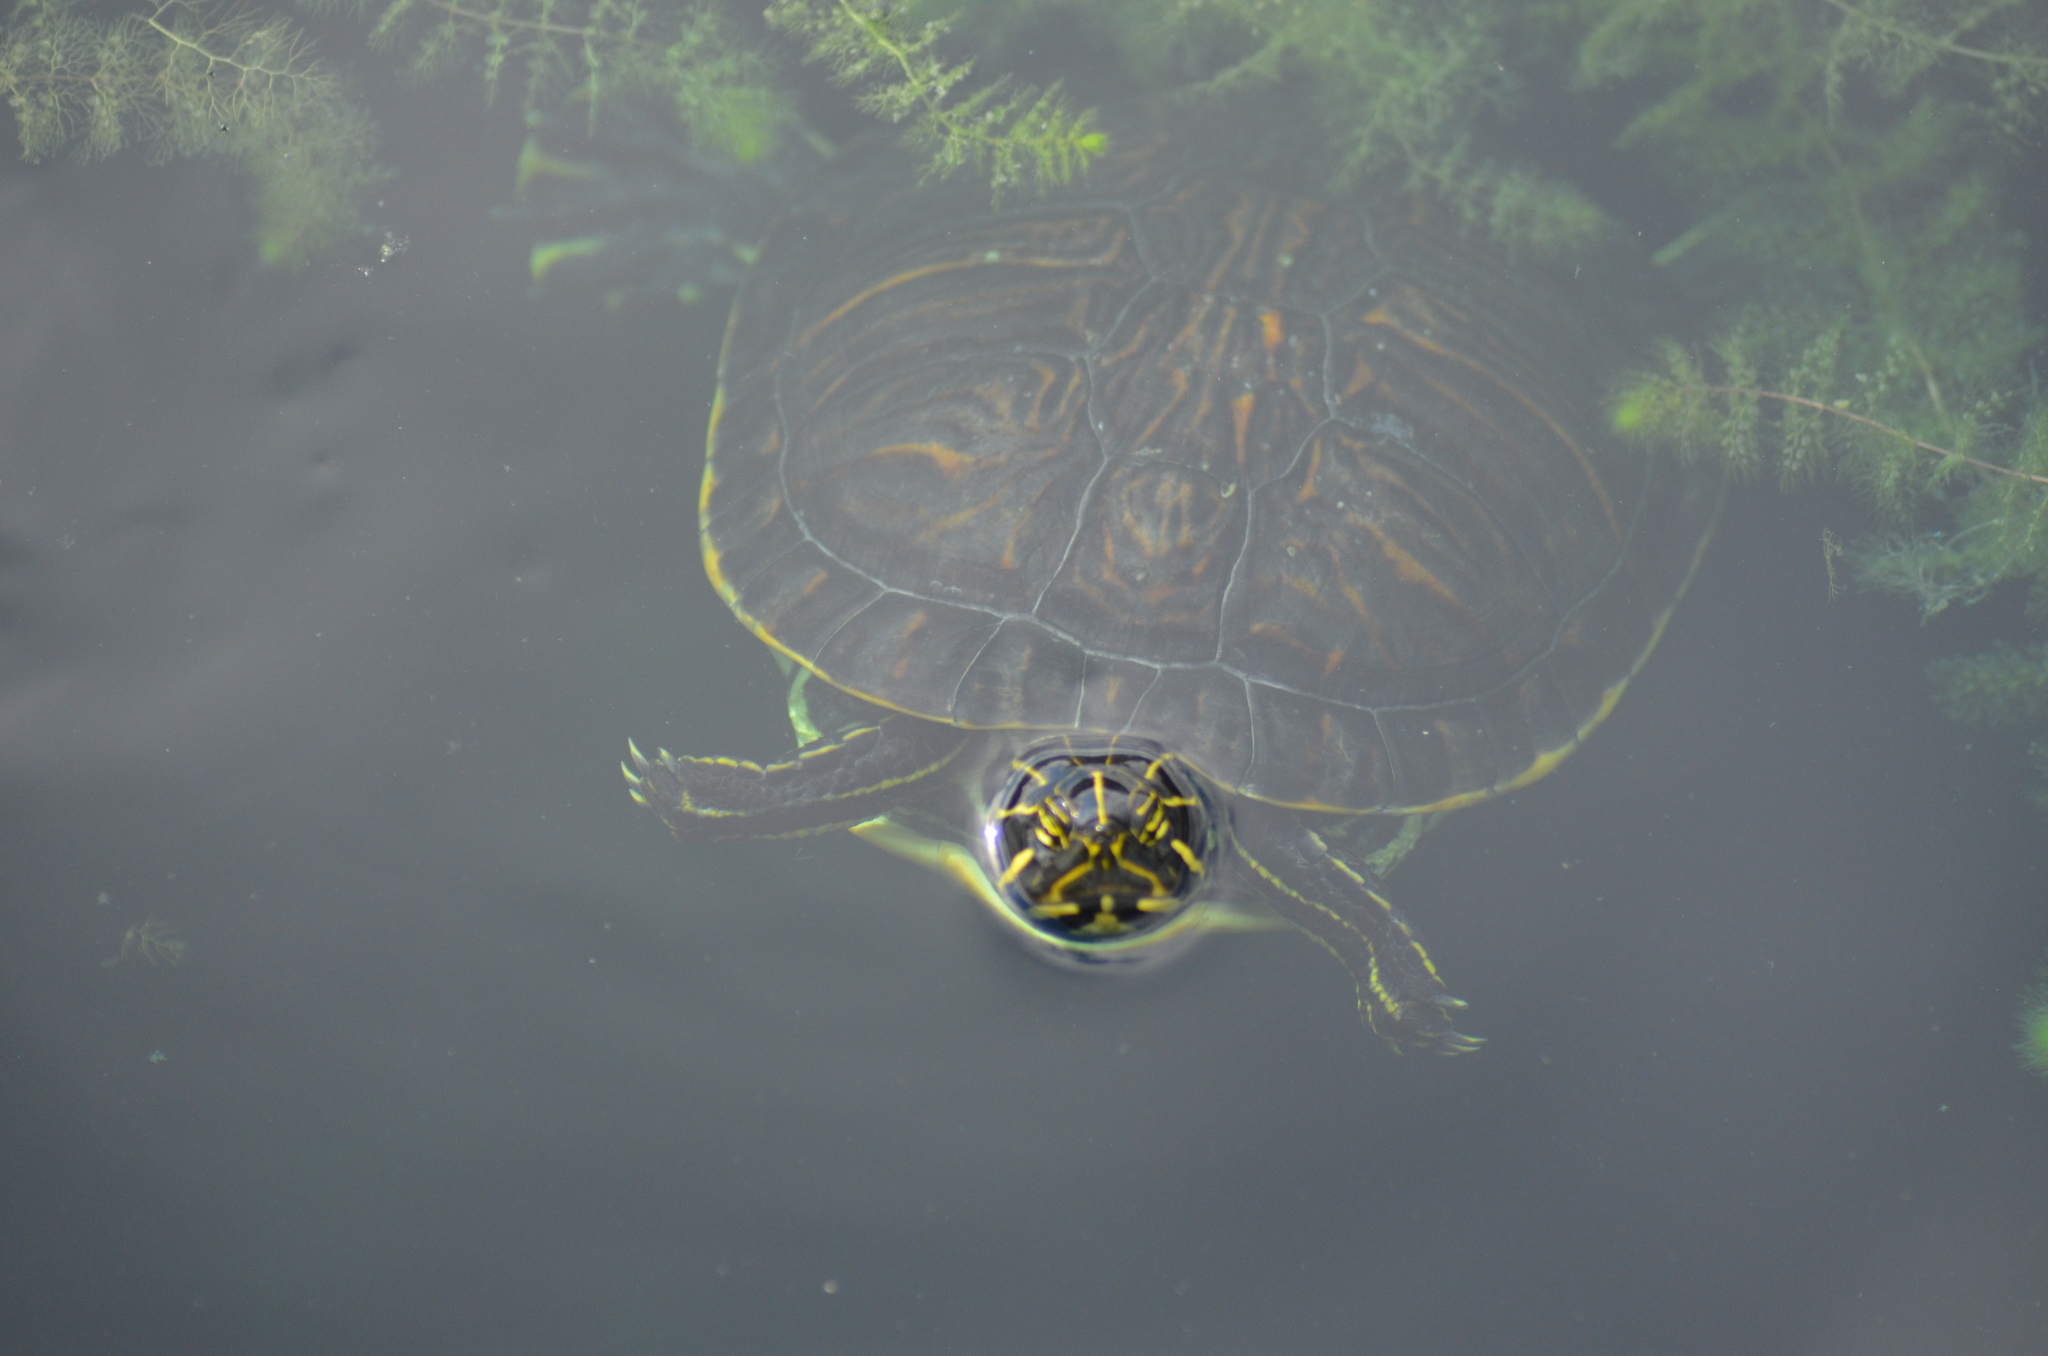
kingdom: Animalia
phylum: Chordata
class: Testudines
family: Emydidae
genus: Pseudemys
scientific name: Pseudemys concinna
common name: Eastern river cooter
